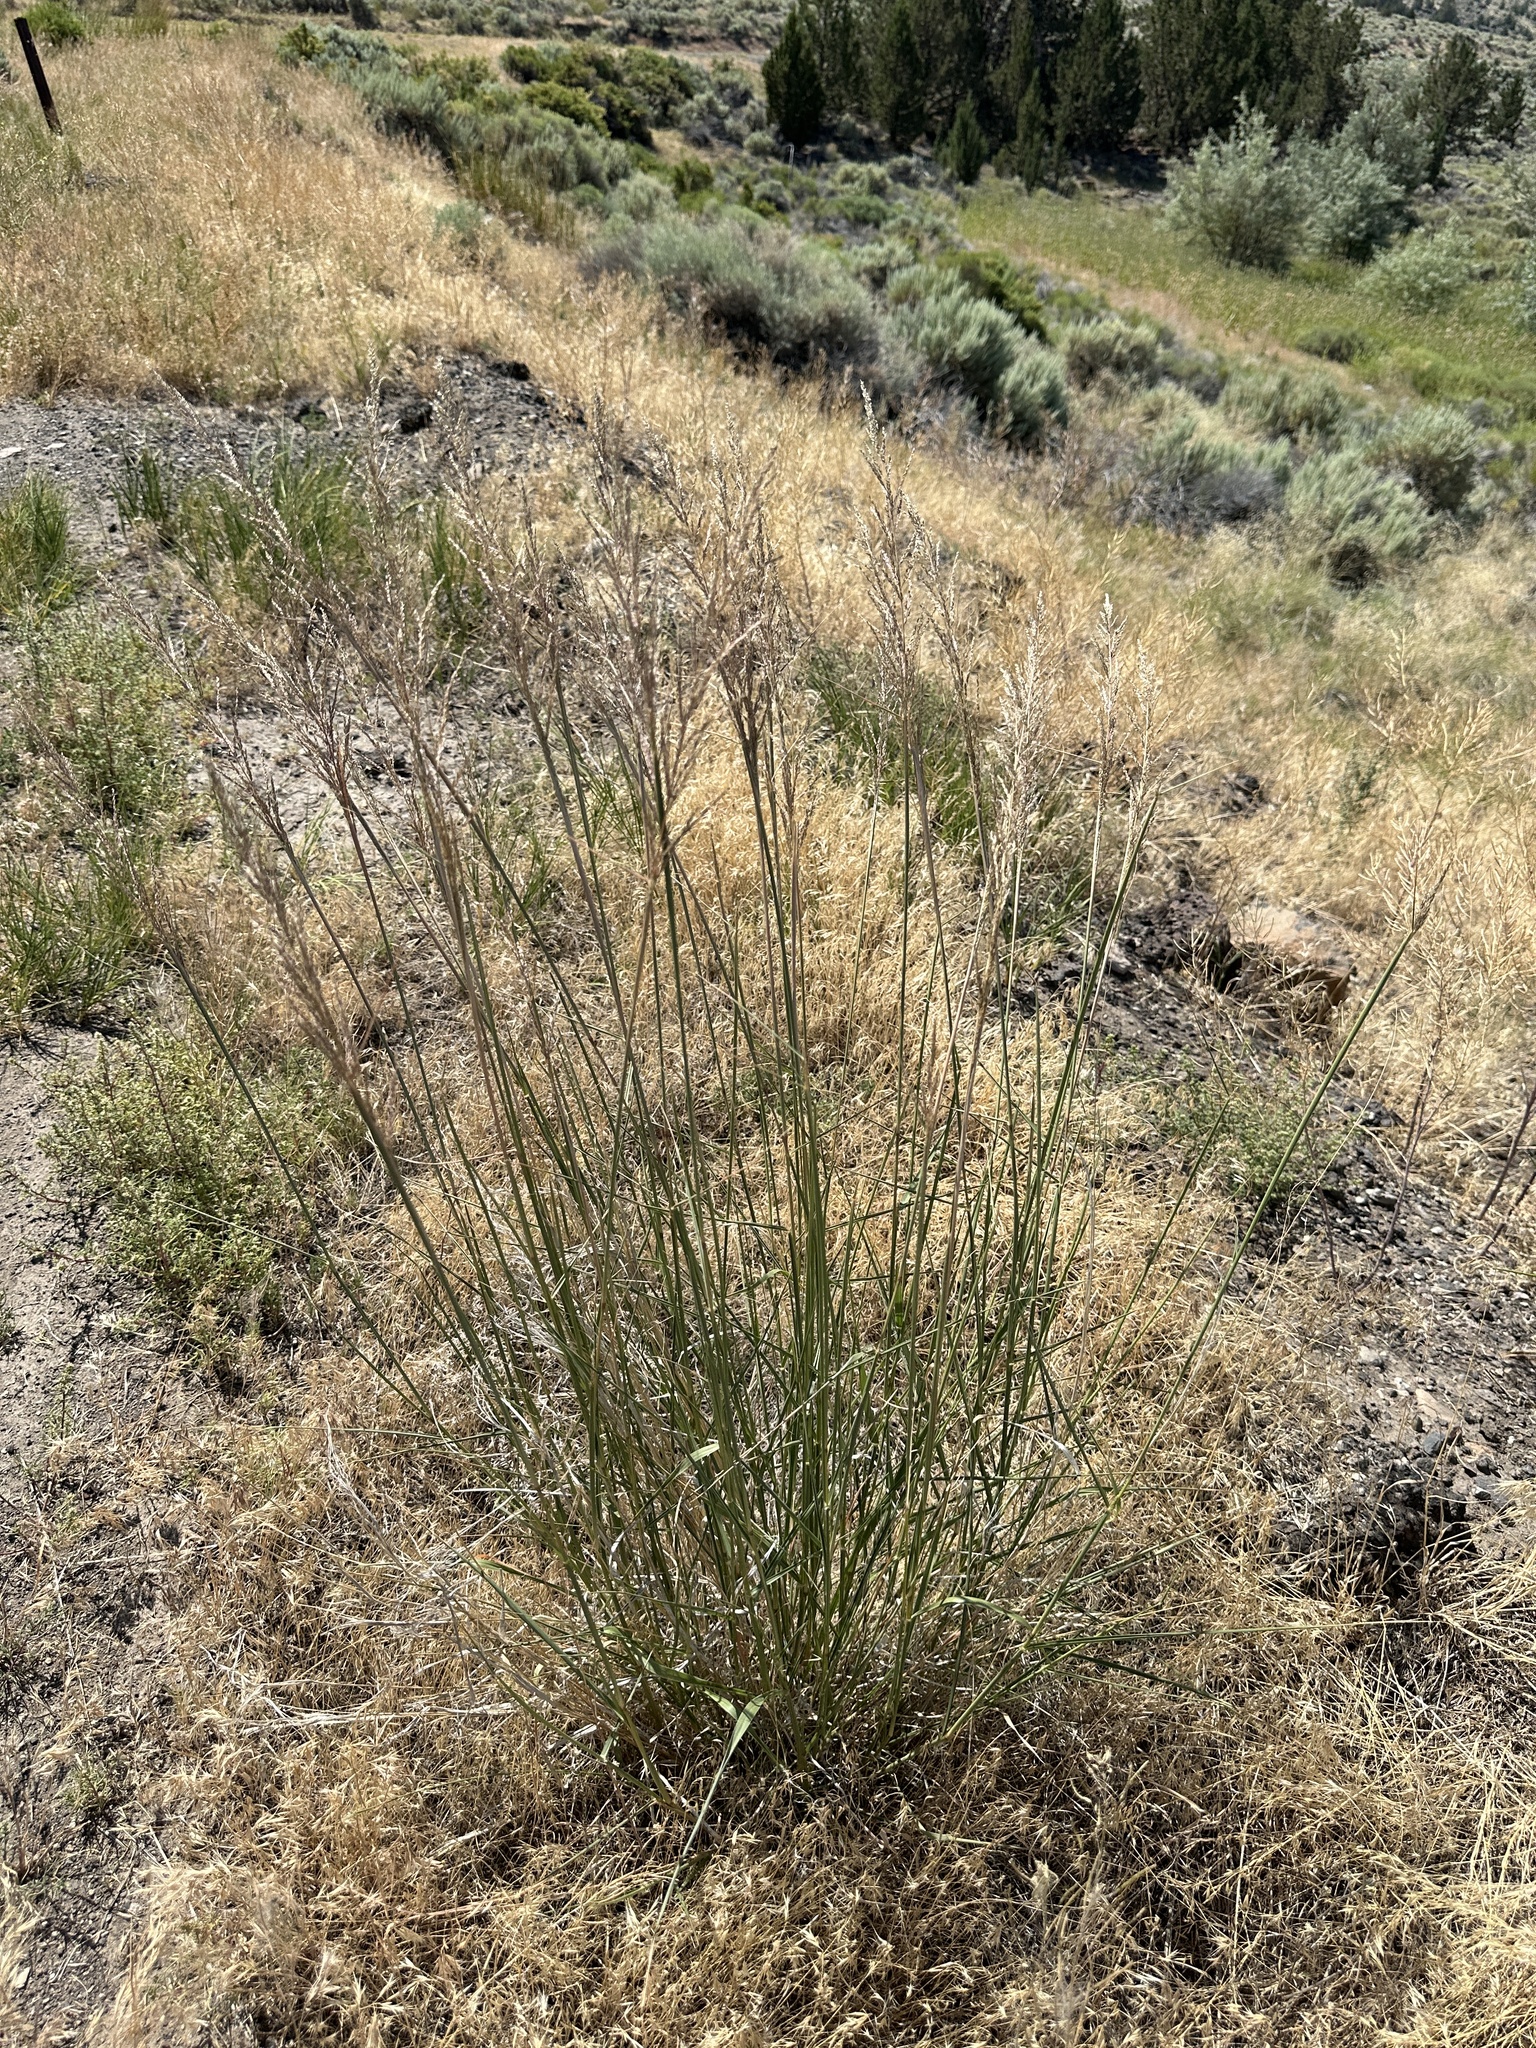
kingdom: Plantae
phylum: Tracheophyta
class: Liliopsida
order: Poales
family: Poaceae
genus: Diplachne
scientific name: Diplachne fusca
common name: Brown beetle grass
